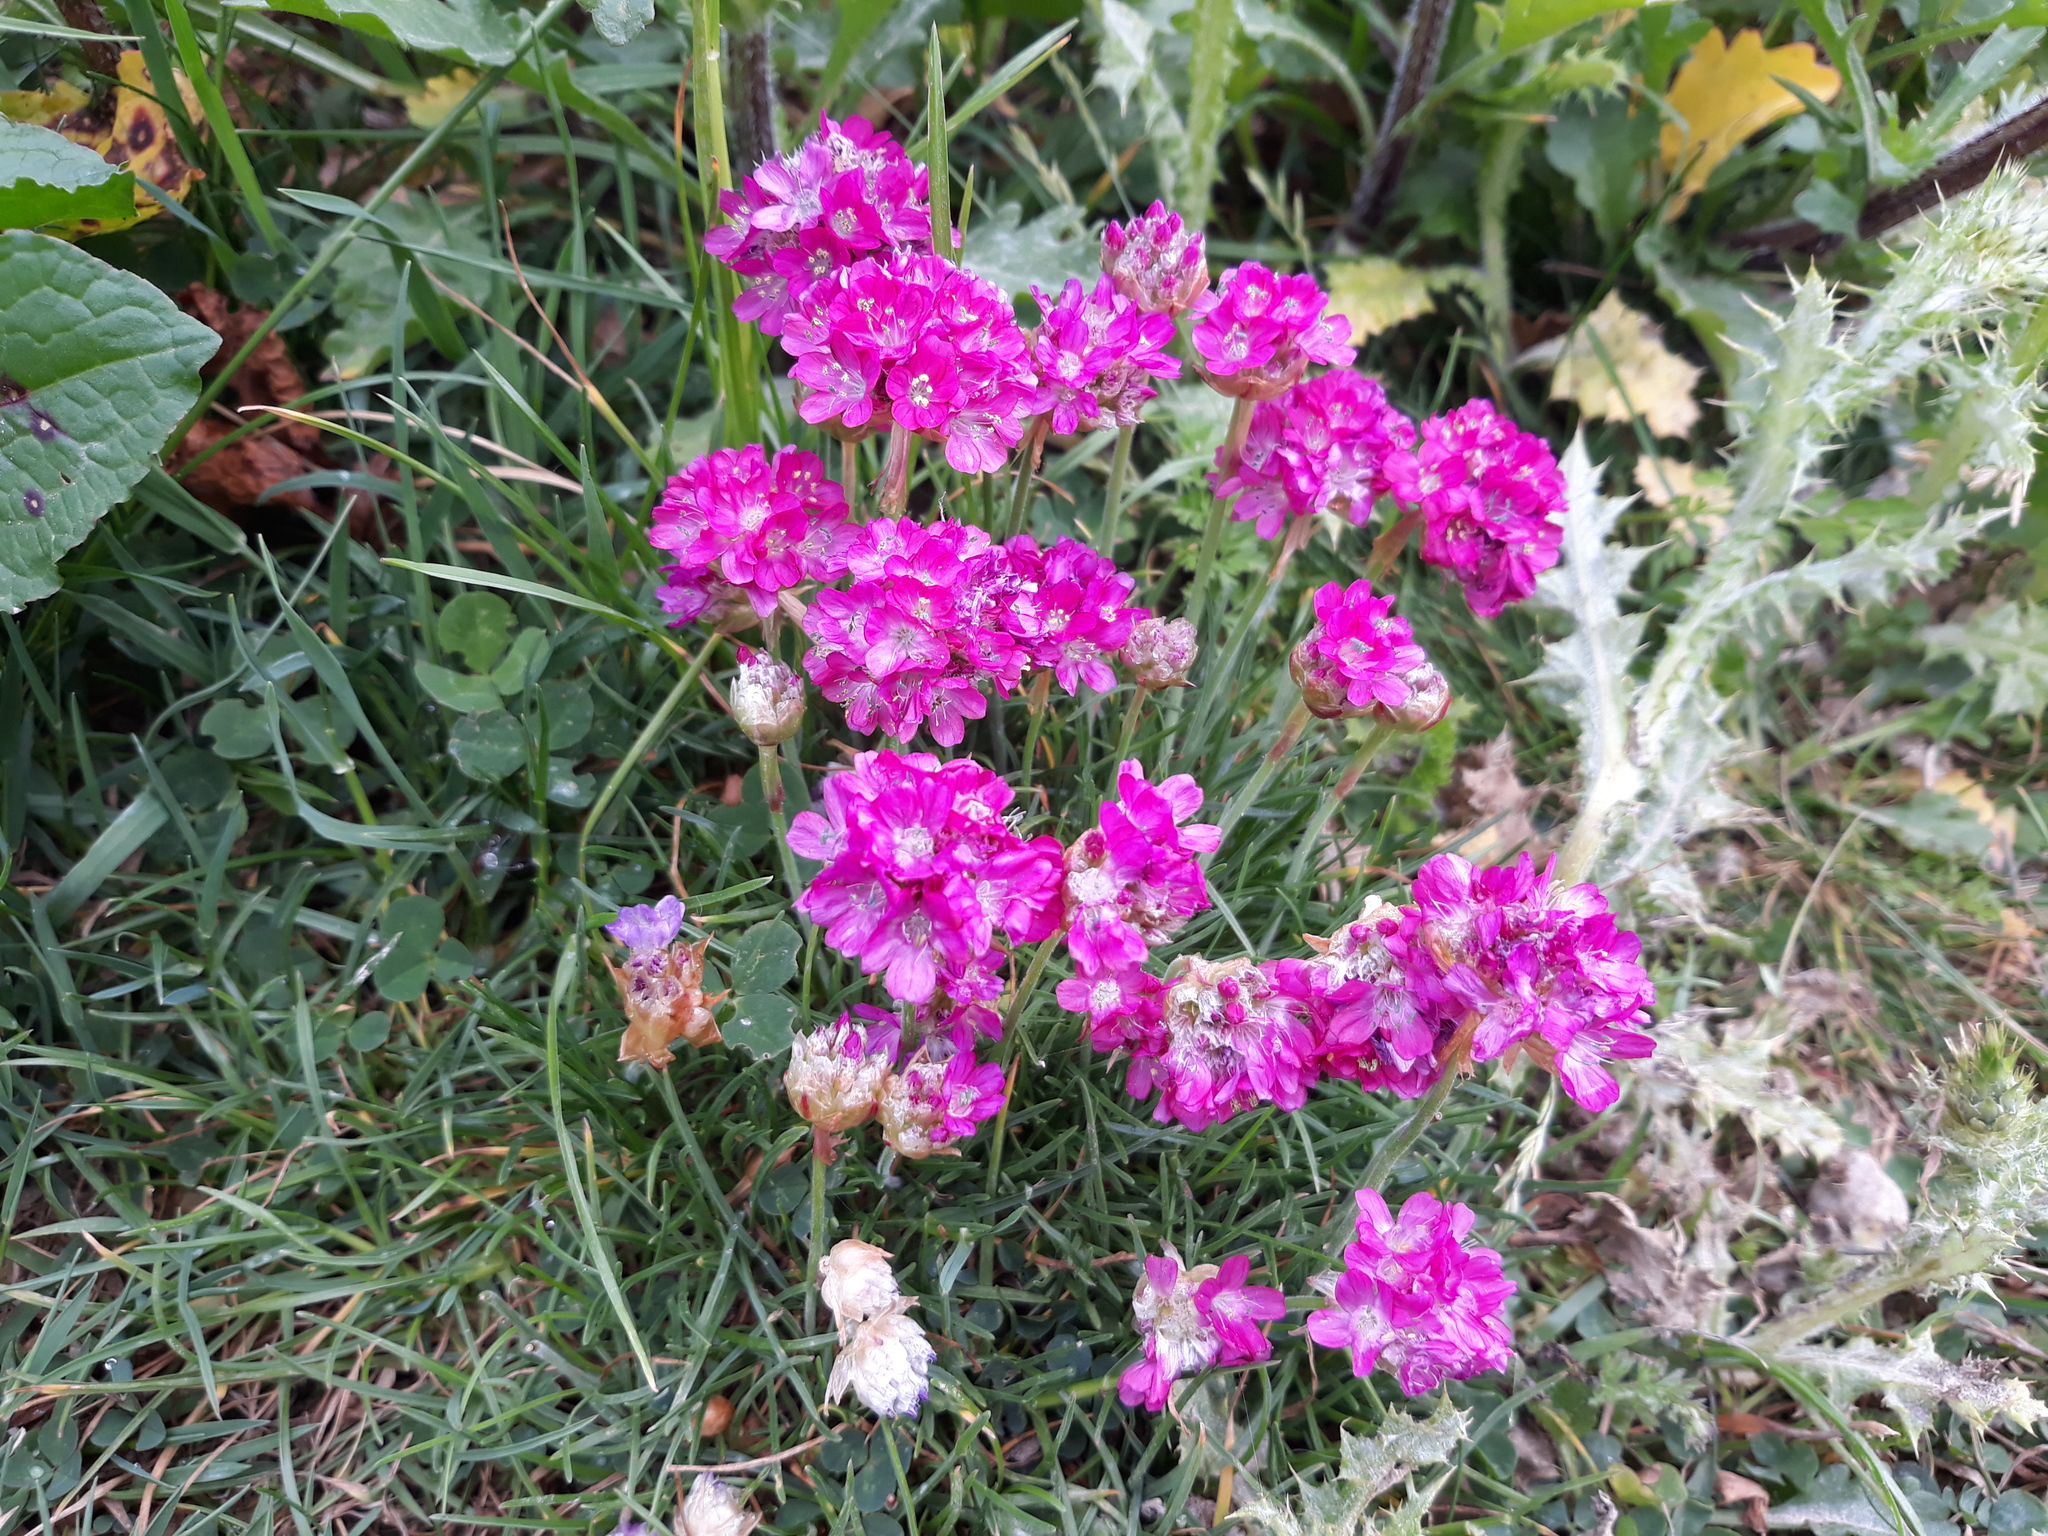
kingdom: Plantae
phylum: Tracheophyta
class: Magnoliopsida
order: Caryophyllales
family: Plumbaginaceae
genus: Armeria
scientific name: Armeria maritima
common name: Thrift
